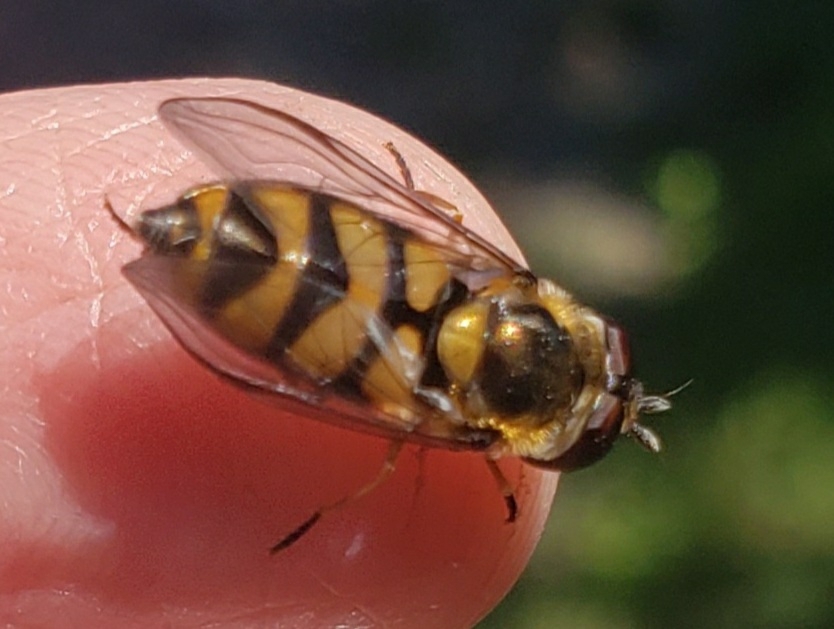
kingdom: Animalia
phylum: Arthropoda
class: Insecta
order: Diptera
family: Syrphidae
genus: Didea
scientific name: Didea fuscipes
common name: Undivided lucent
